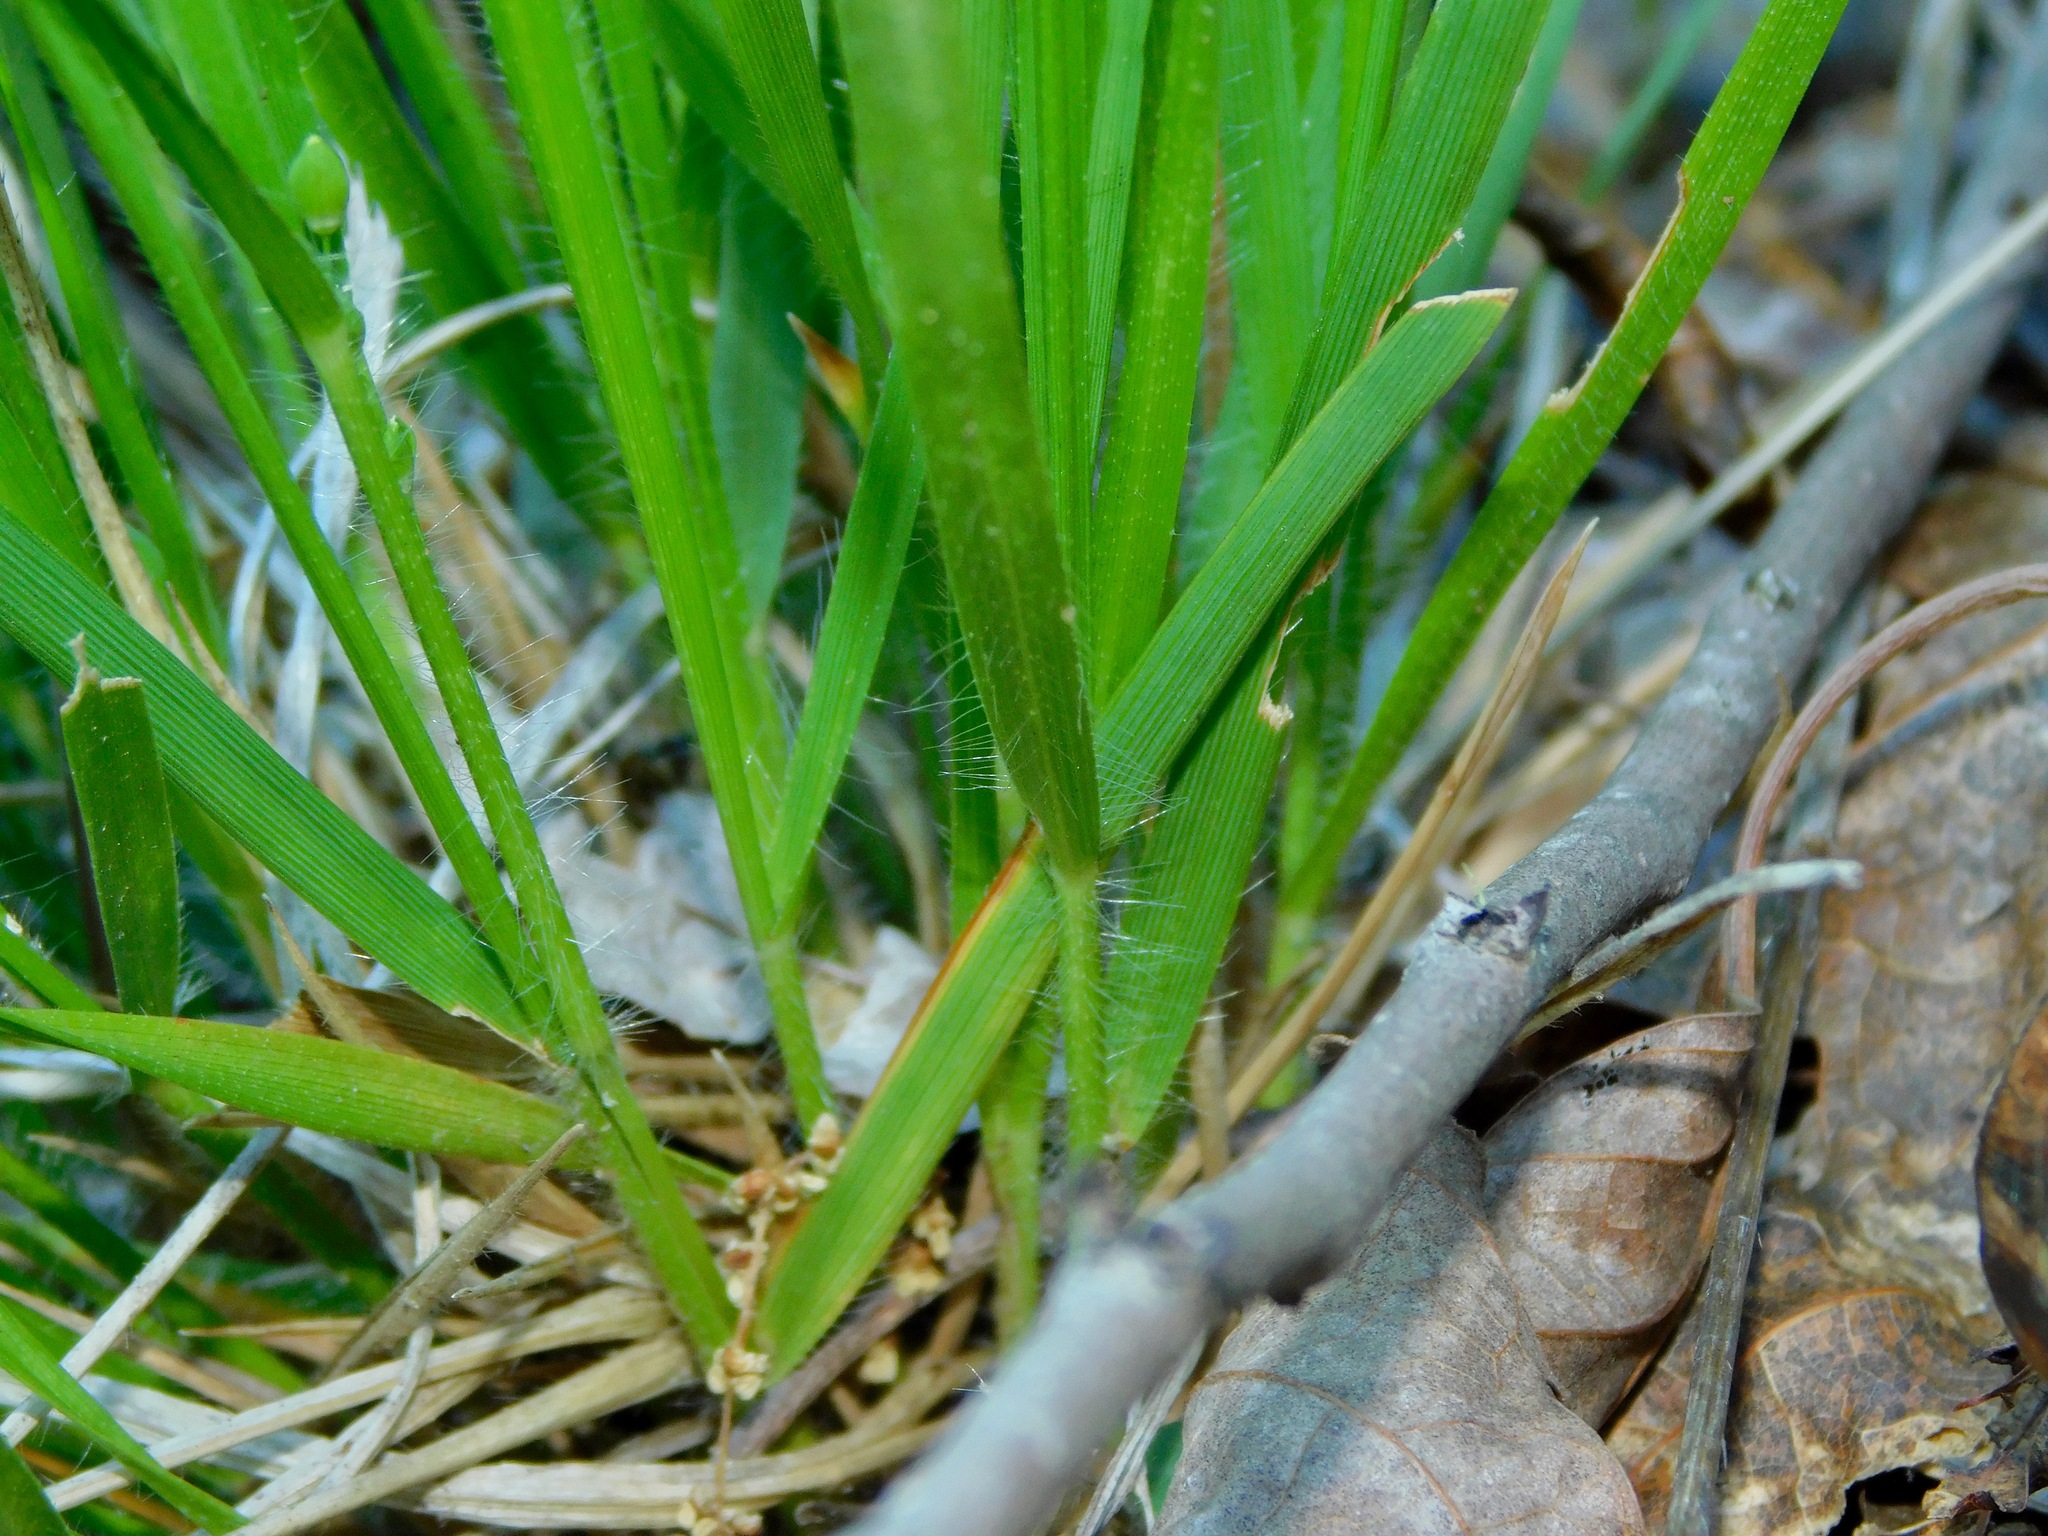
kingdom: Plantae
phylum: Tracheophyta
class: Liliopsida
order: Poales
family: Poaceae
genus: Dichanthelium
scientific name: Dichanthelium depauperatum
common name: Depauperate panicgrass
